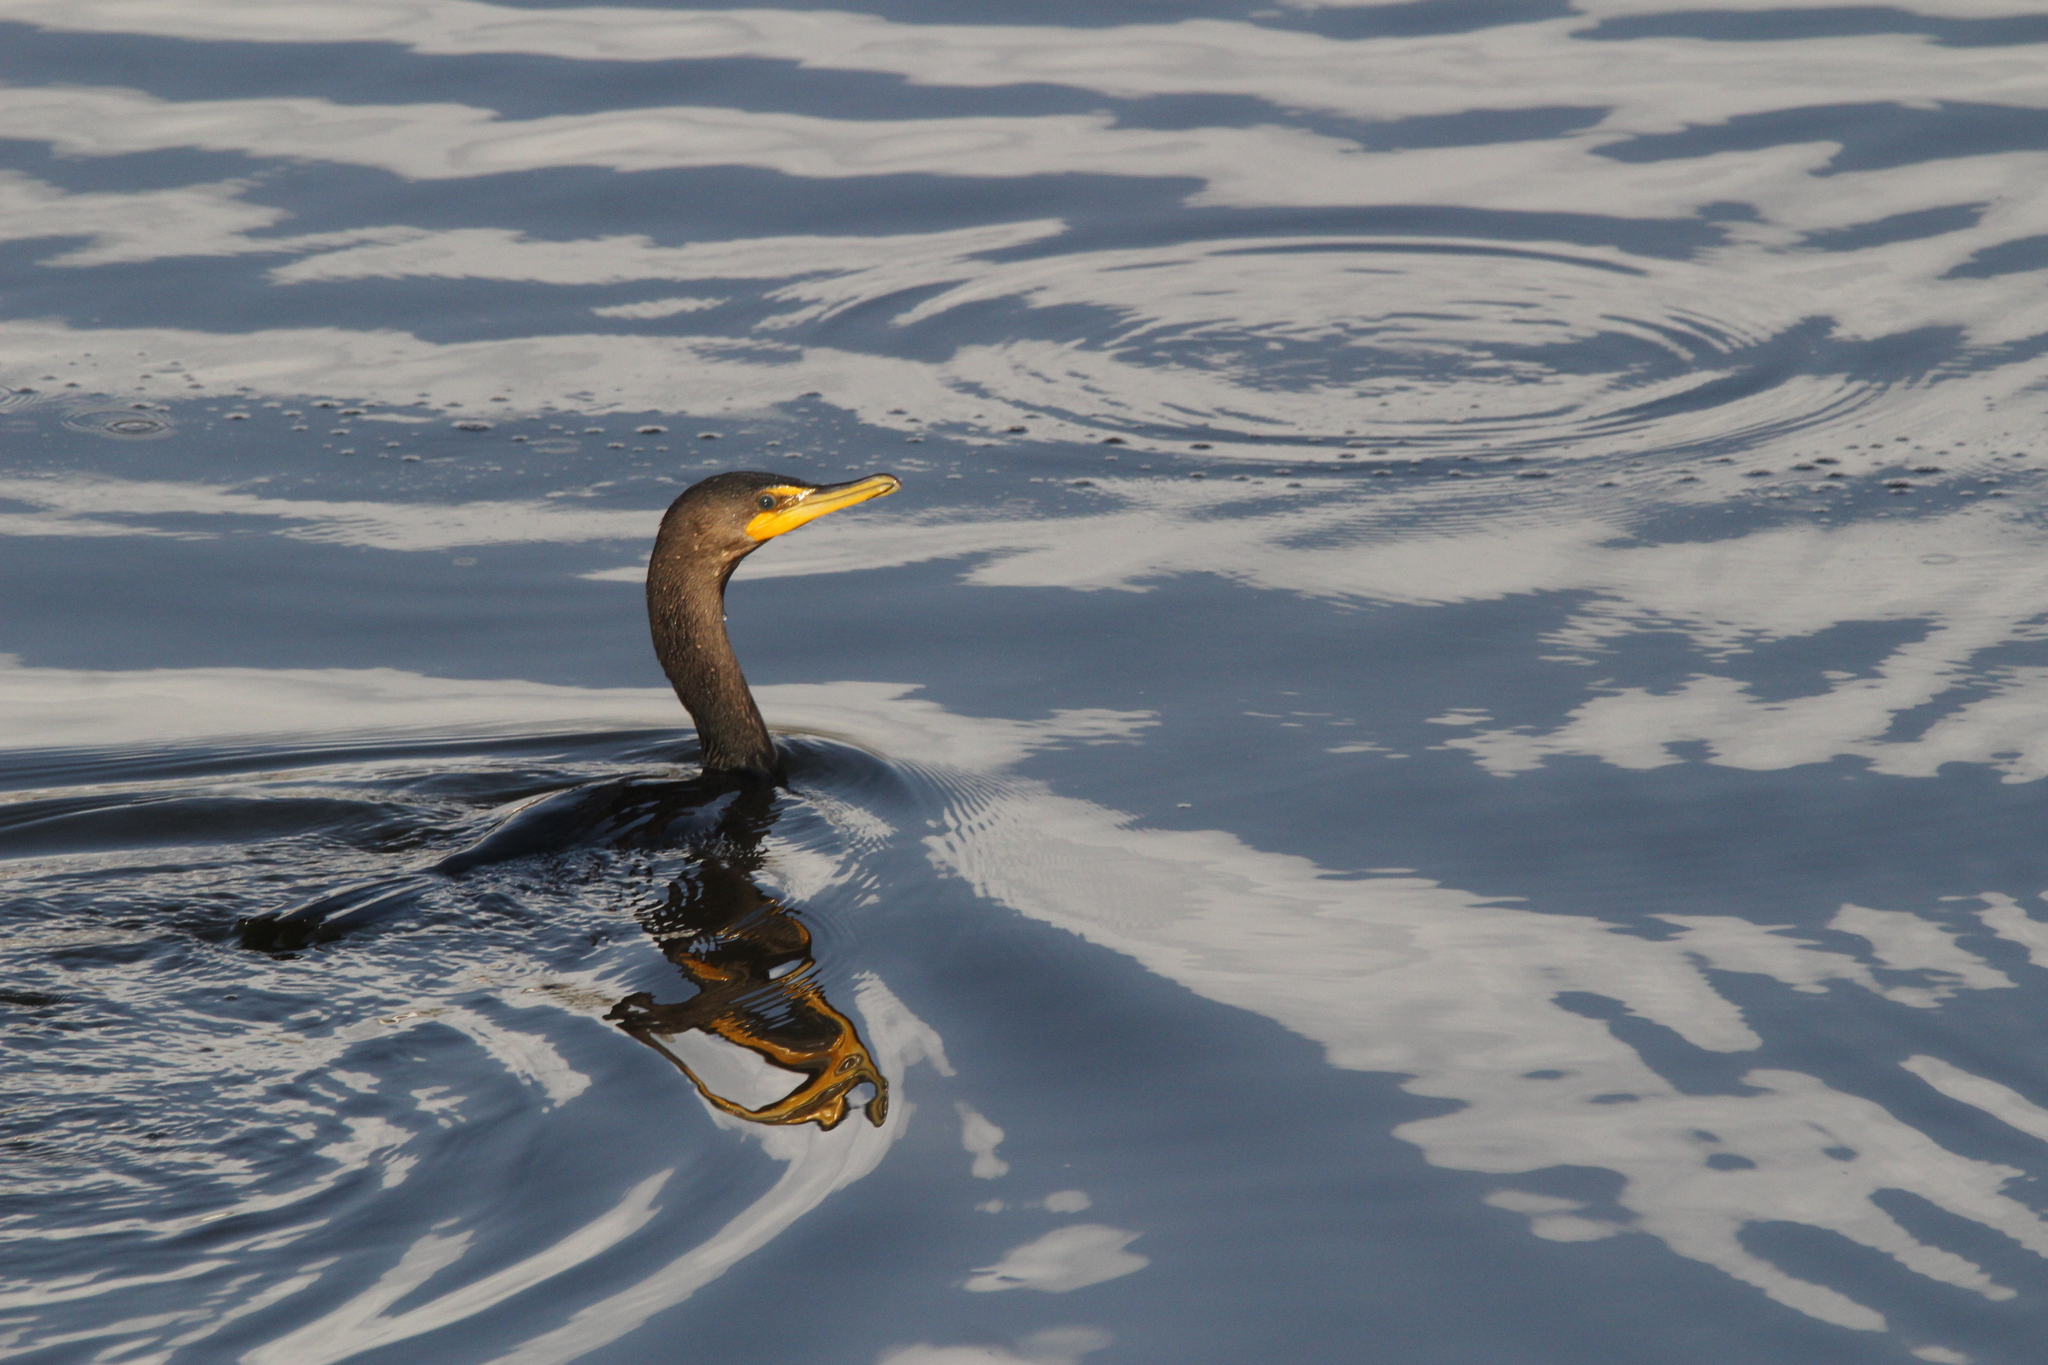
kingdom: Animalia
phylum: Chordata
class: Aves
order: Suliformes
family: Phalacrocoracidae
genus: Phalacrocorax
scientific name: Phalacrocorax auritus
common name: Double-crested cormorant
